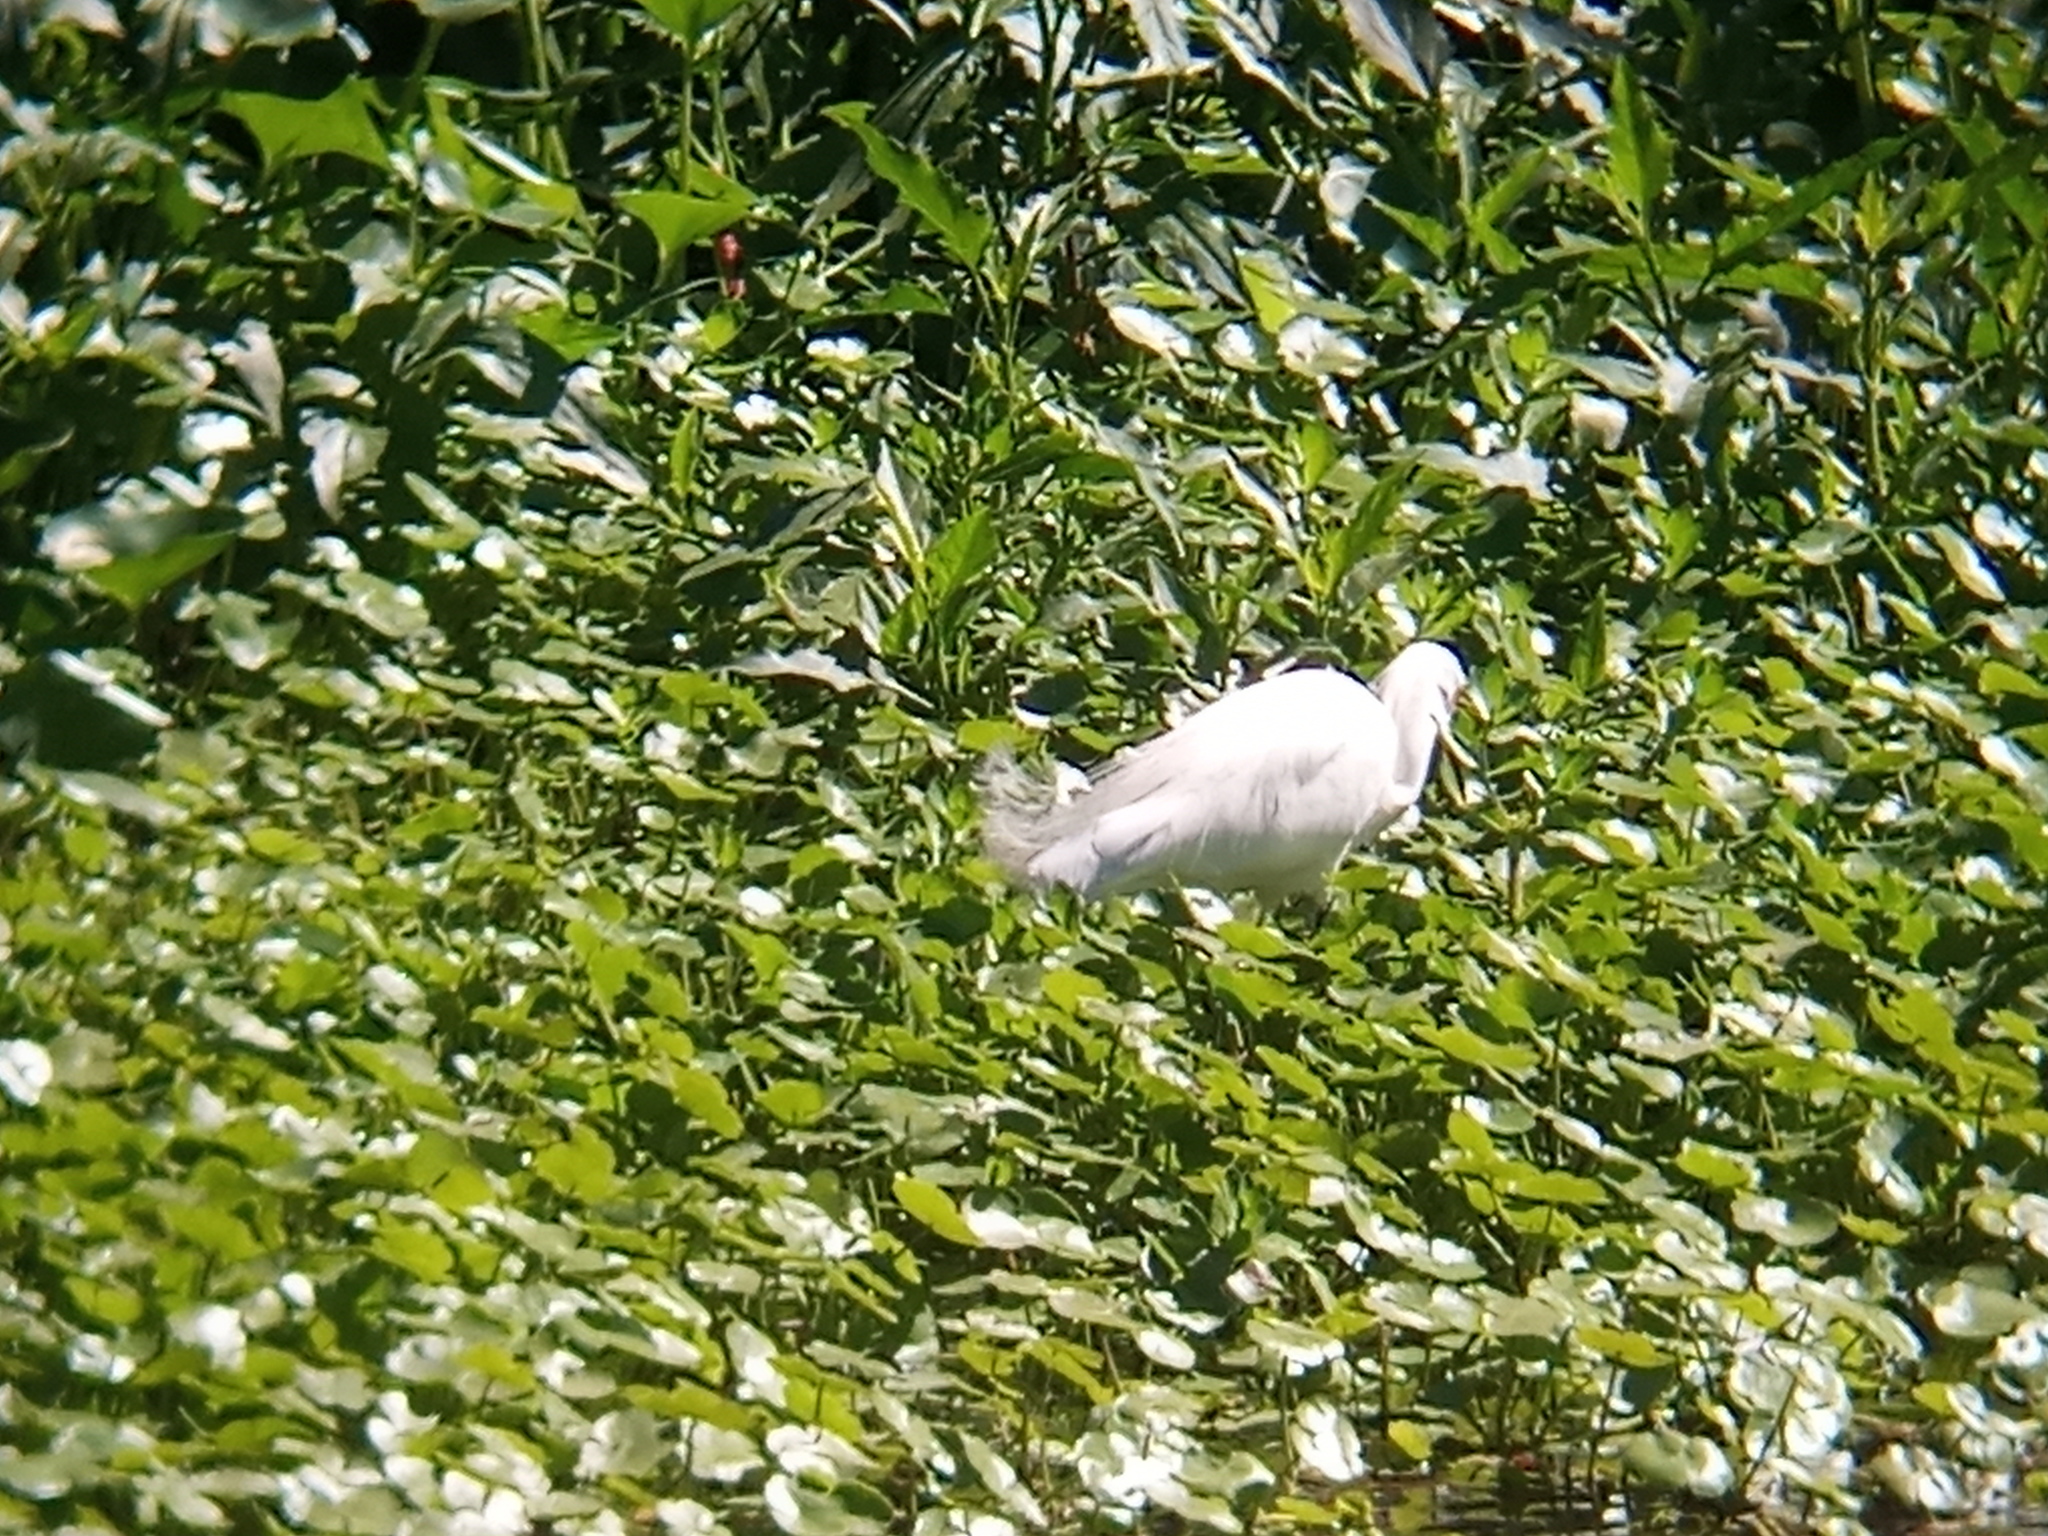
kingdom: Animalia
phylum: Chordata
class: Aves
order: Pelecaniformes
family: Ardeidae
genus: Egretta
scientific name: Egretta thula
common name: Snowy egret
